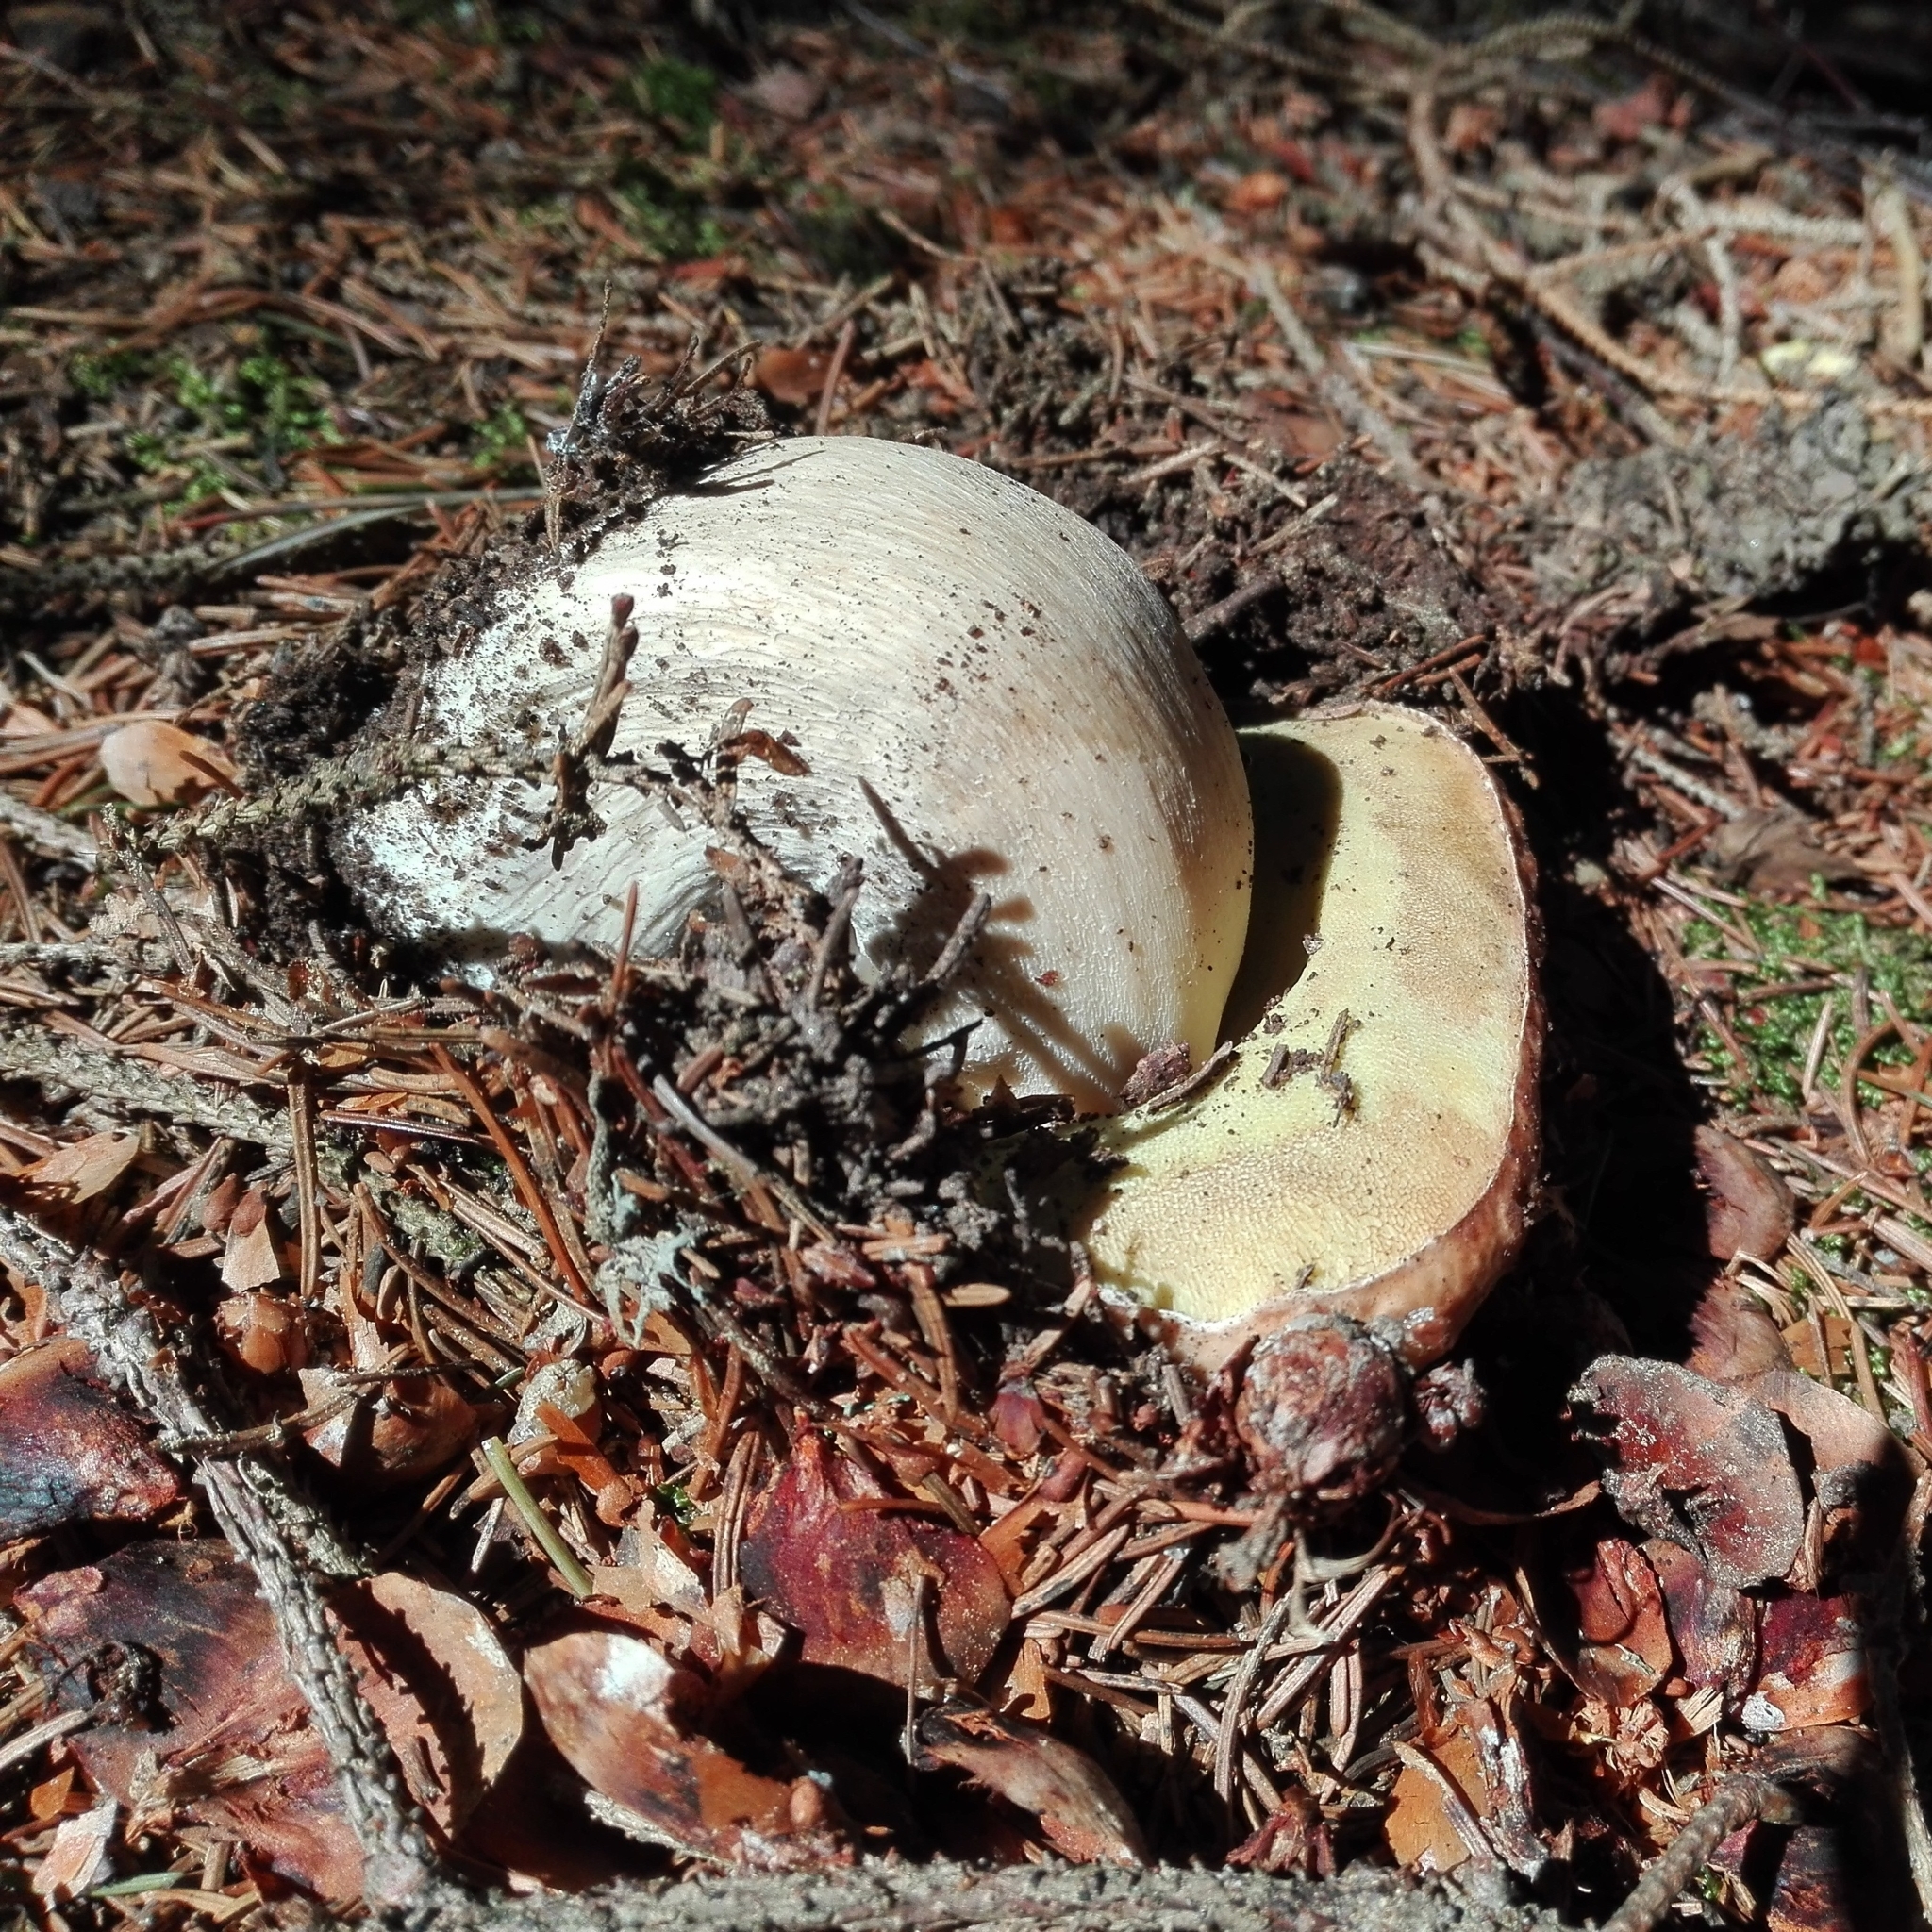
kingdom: Fungi
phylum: Basidiomycota
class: Agaricomycetes
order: Boletales
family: Boletaceae
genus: Boletus
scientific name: Boletus edulis
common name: Cep
